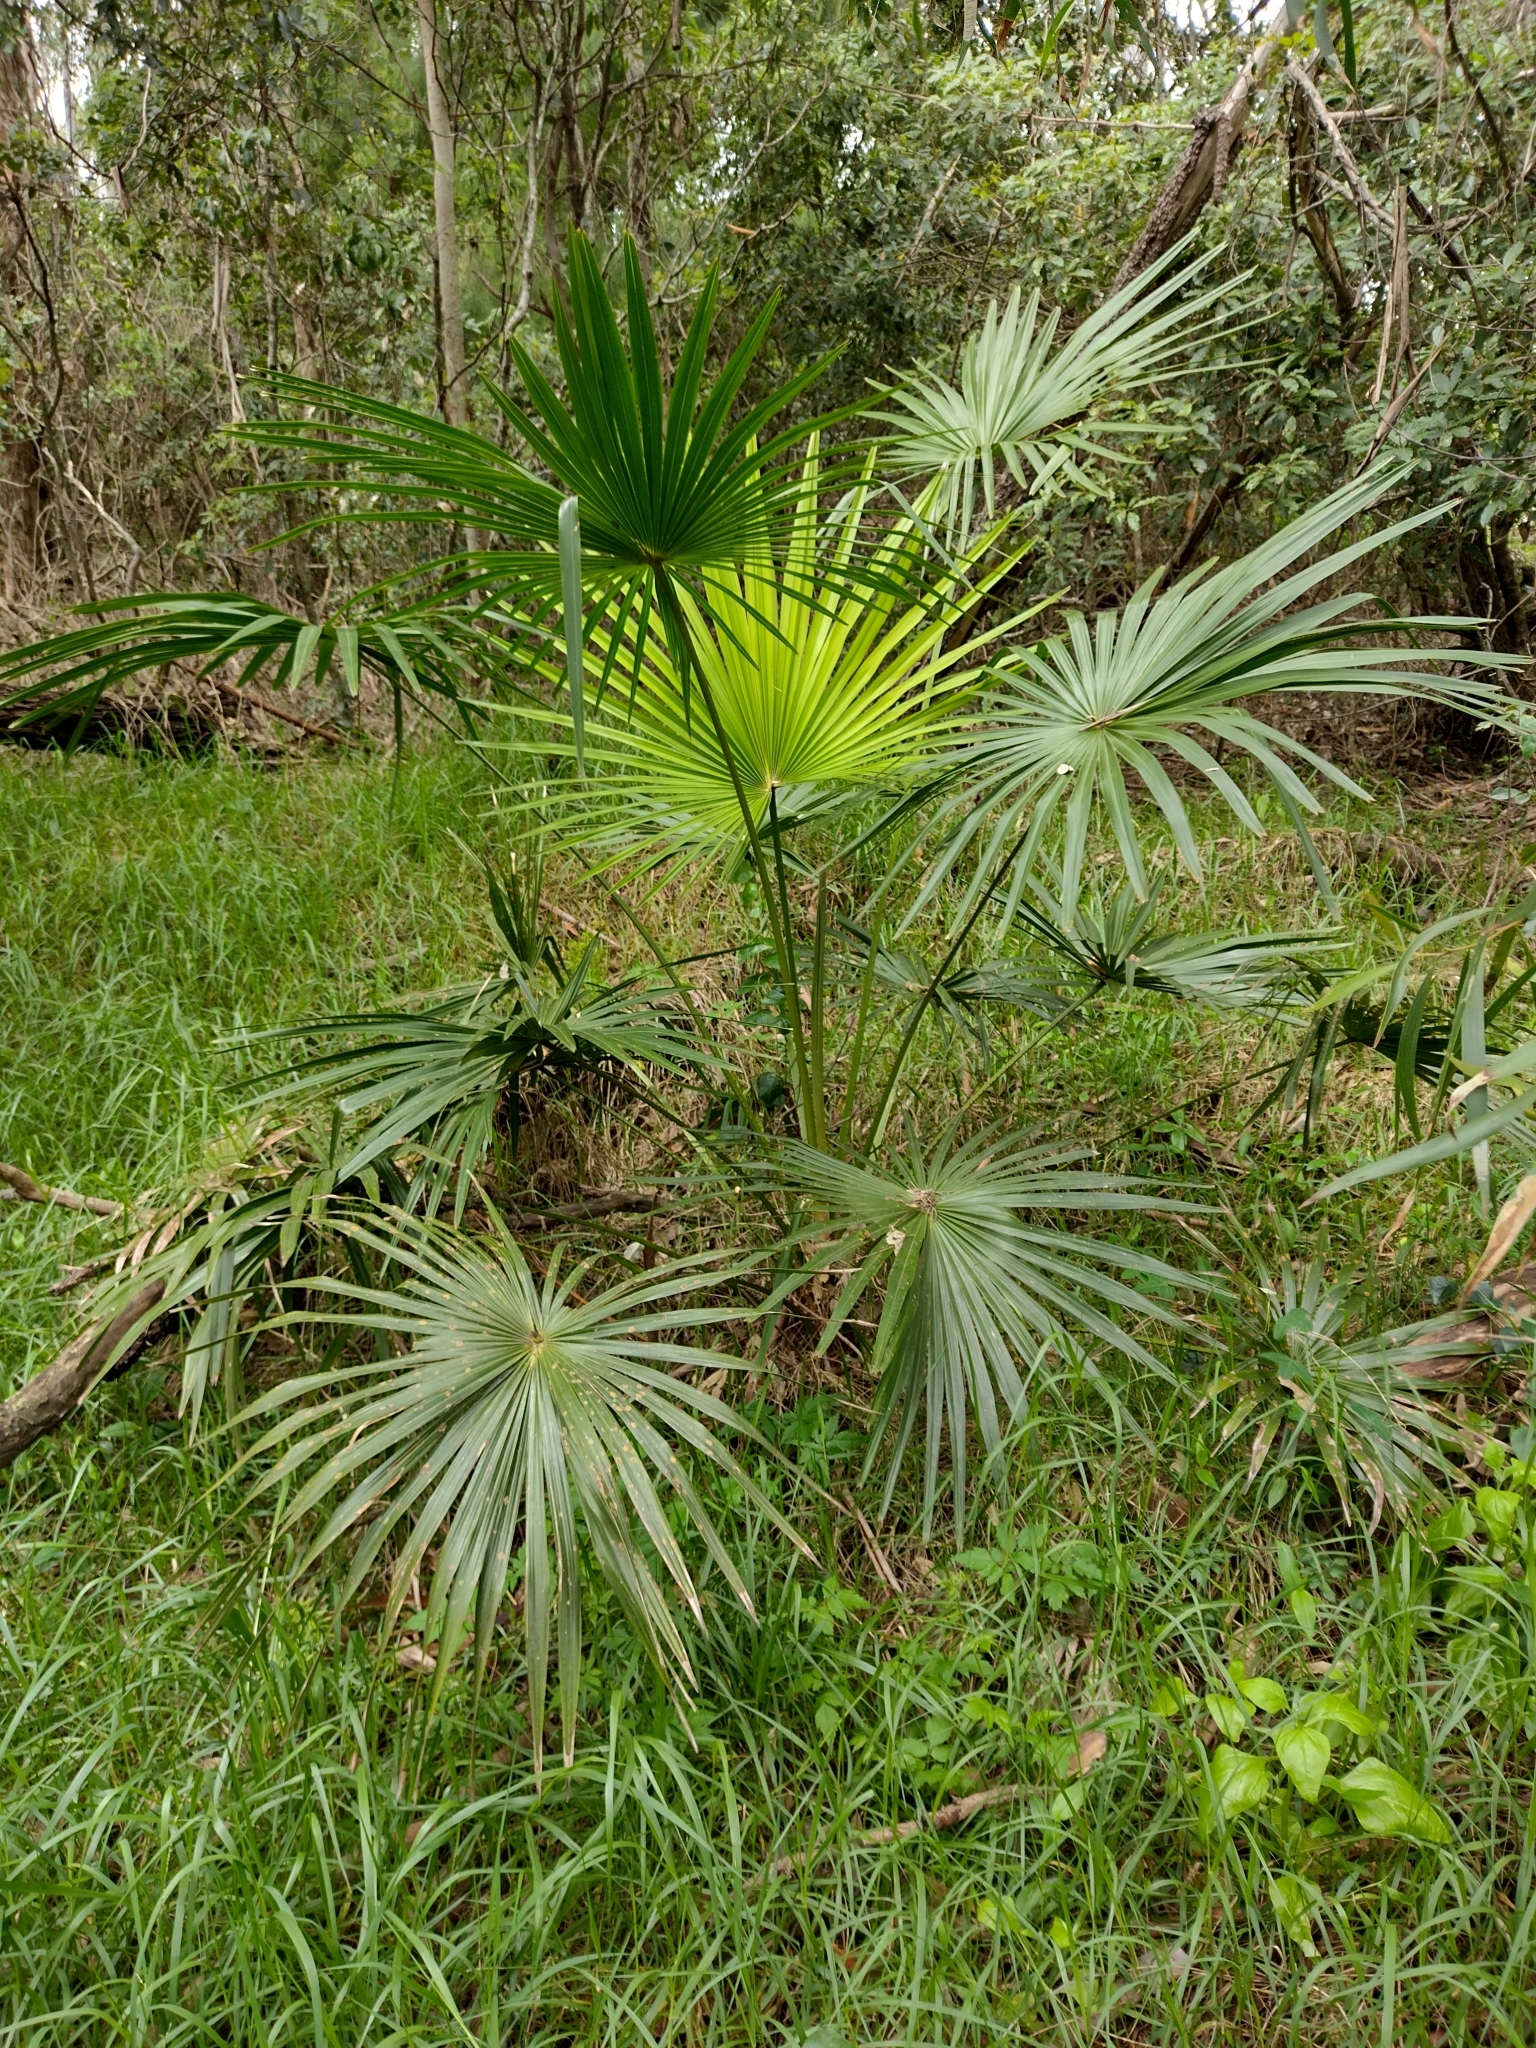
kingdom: Plantae
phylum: Tracheophyta
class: Liliopsida
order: Arecales
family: Arecaceae
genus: Livistona
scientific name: Livistona australis
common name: Cabbage fan palm
